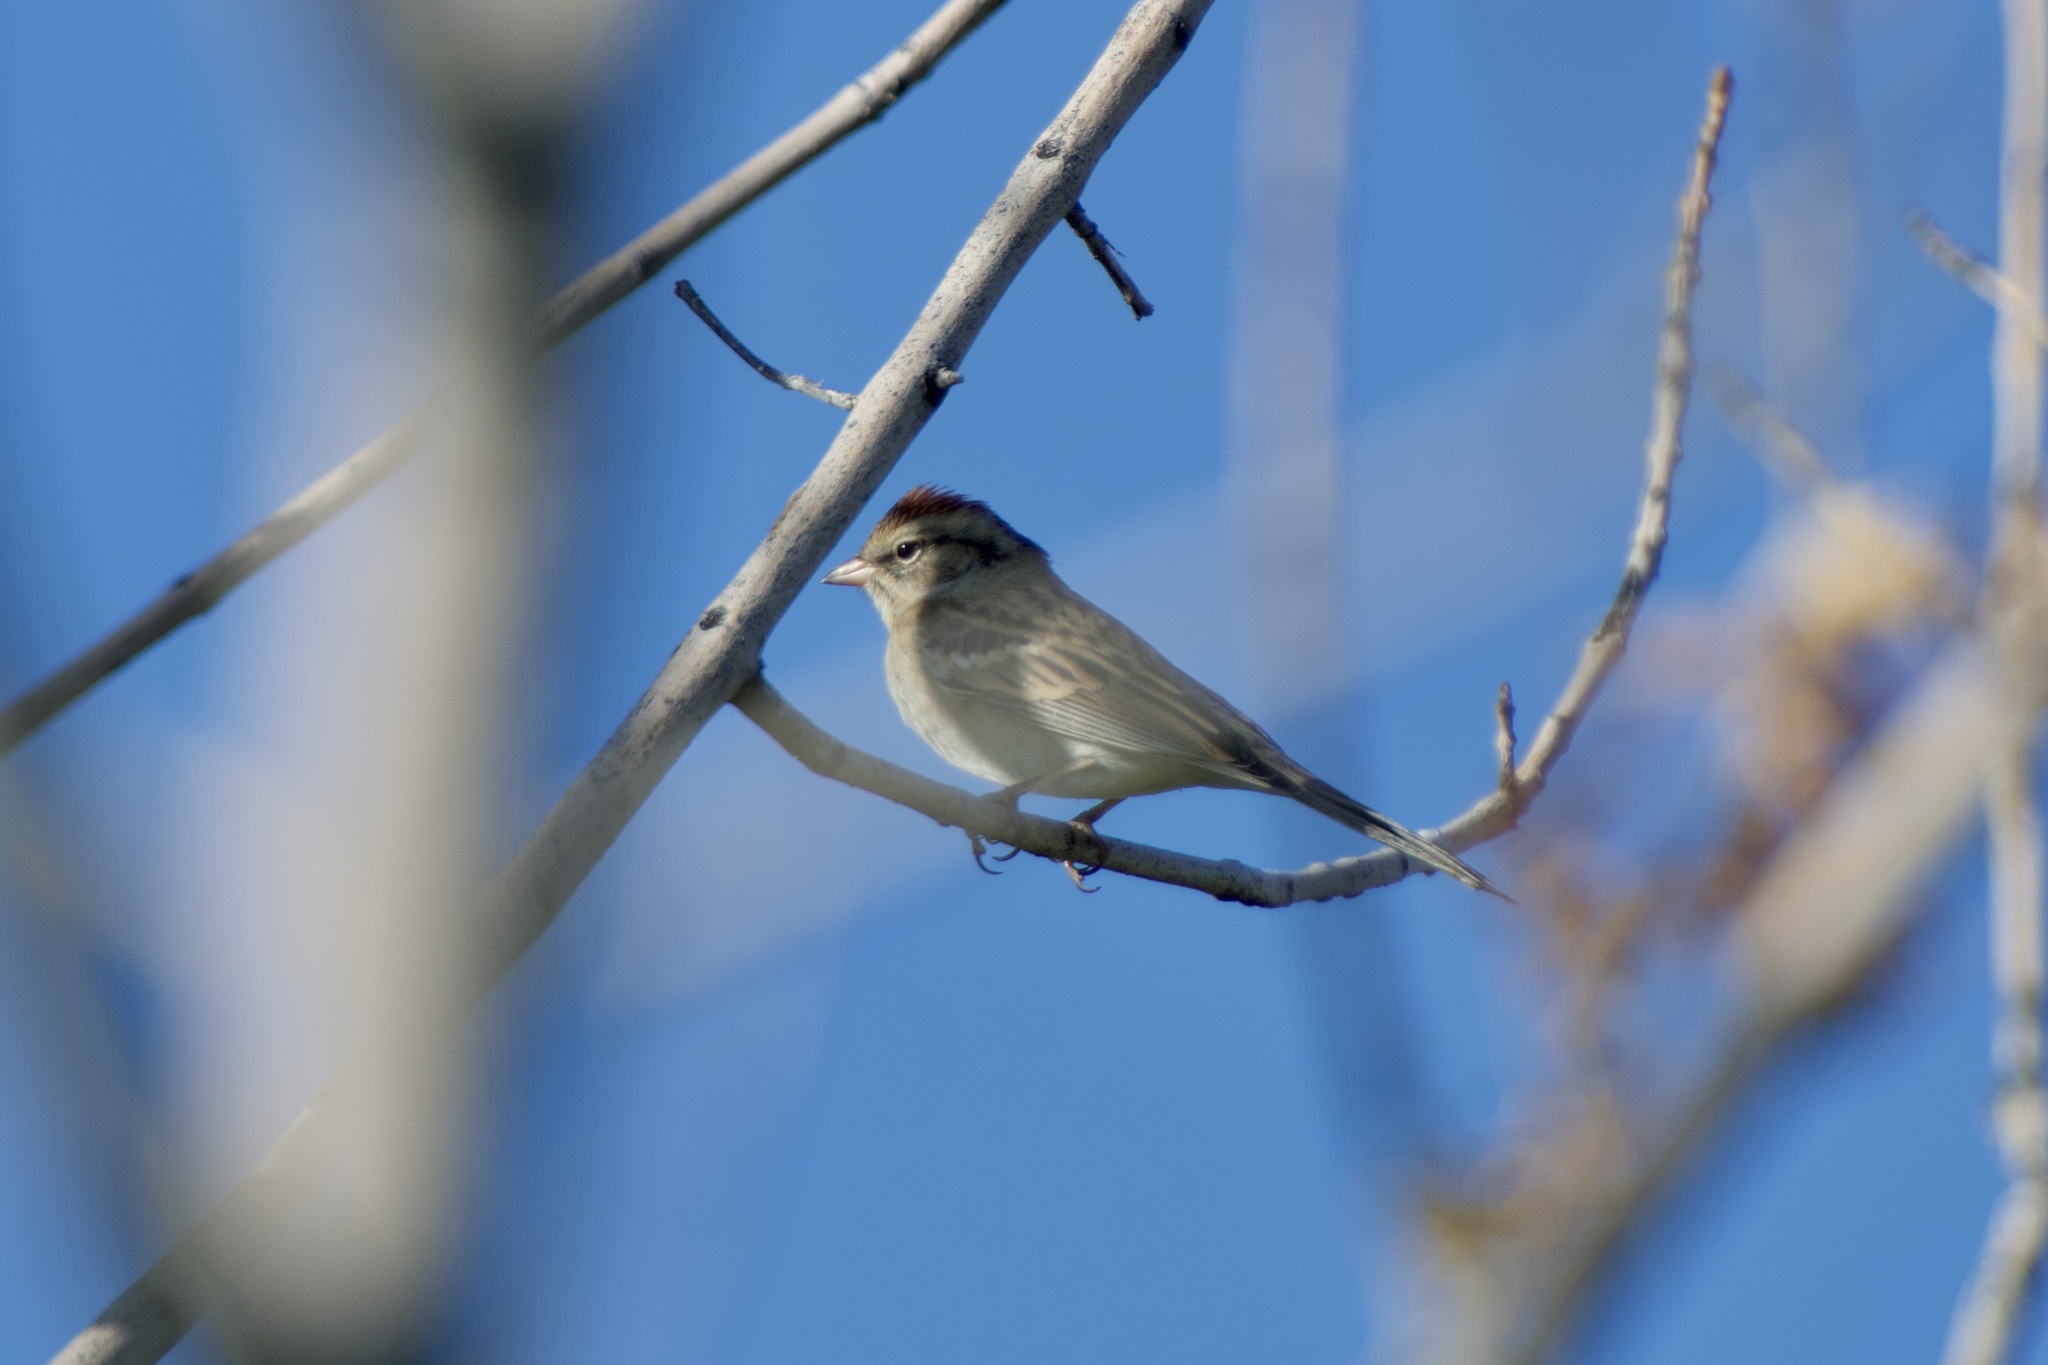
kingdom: Animalia
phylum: Chordata
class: Aves
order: Passeriformes
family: Passerellidae
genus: Spizella
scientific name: Spizella passerina
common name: Chipping sparrow
